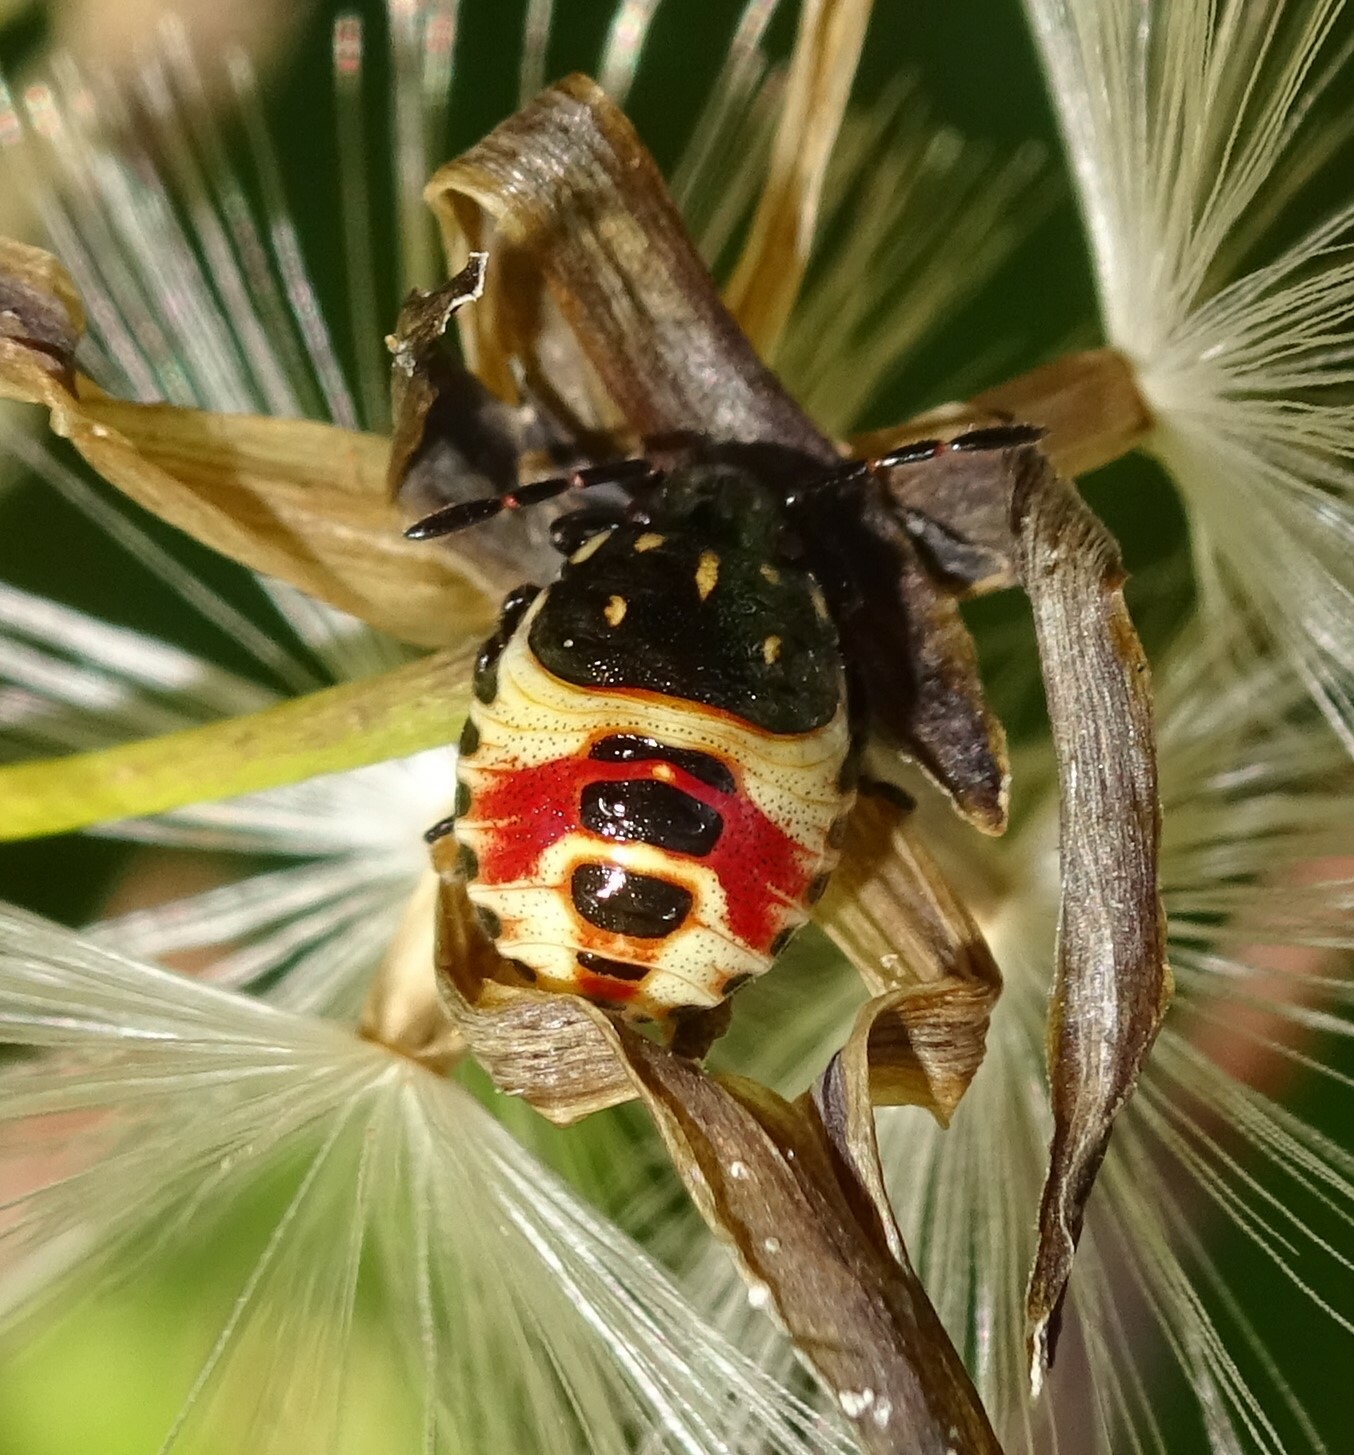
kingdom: Animalia
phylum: Arthropoda
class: Insecta
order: Hemiptera
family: Pentatomidae
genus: Carpocoris
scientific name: Carpocoris
